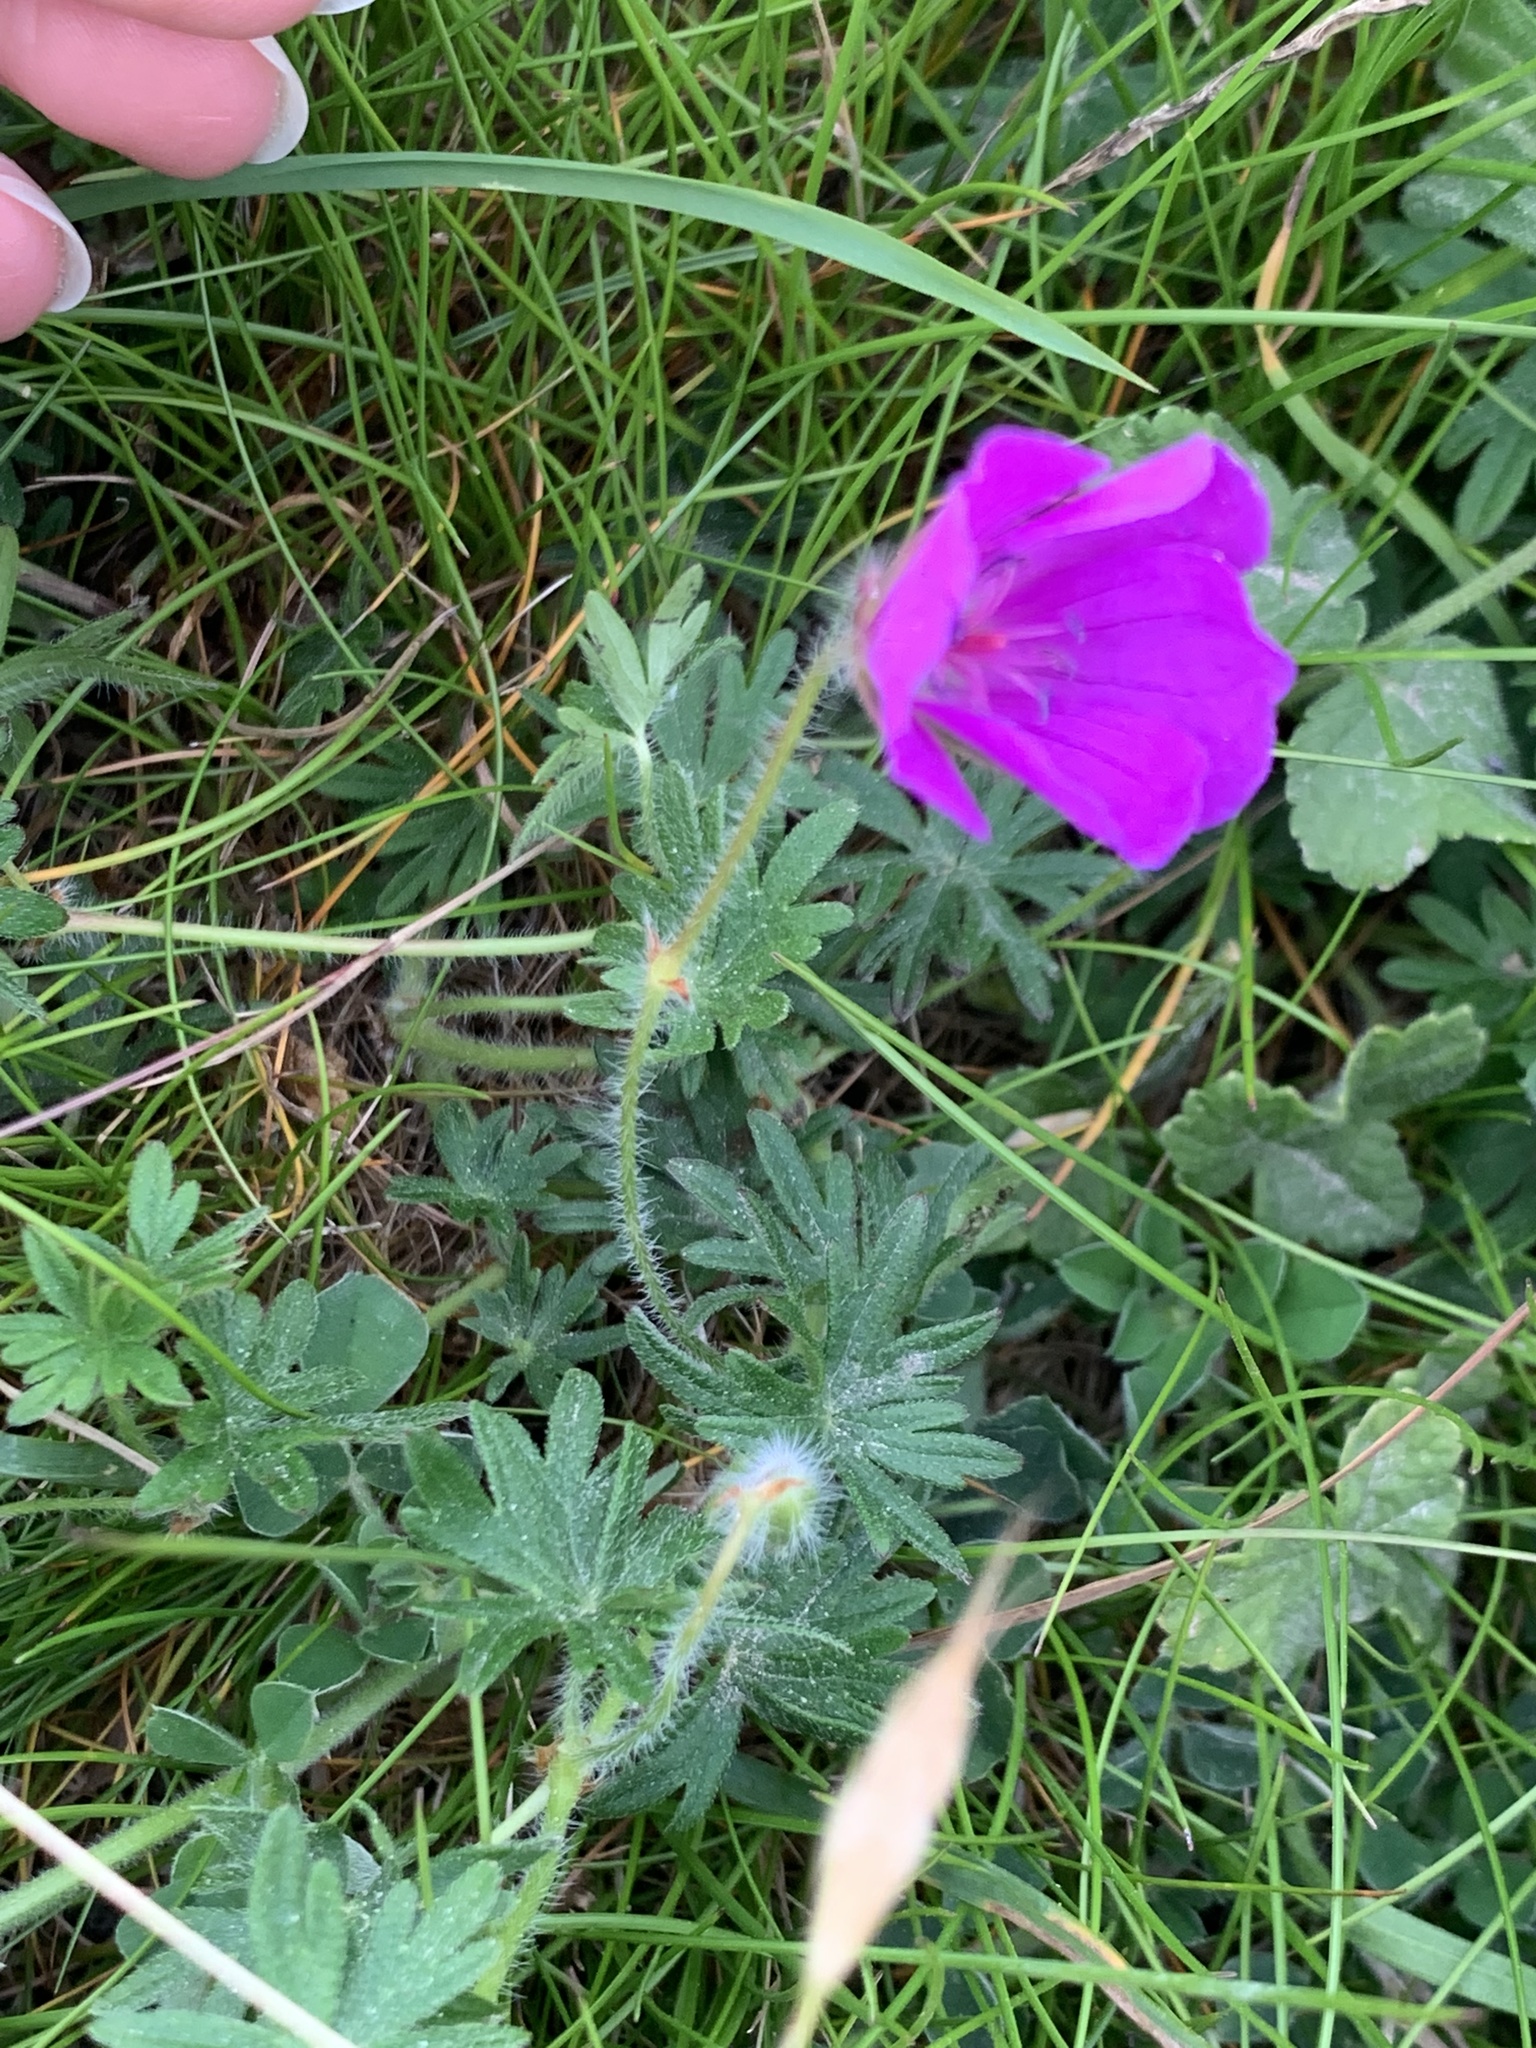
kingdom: Plantae
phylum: Tracheophyta
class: Magnoliopsida
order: Geraniales
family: Geraniaceae
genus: Geranium
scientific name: Geranium sanguineum
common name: Bloody crane's-bill
